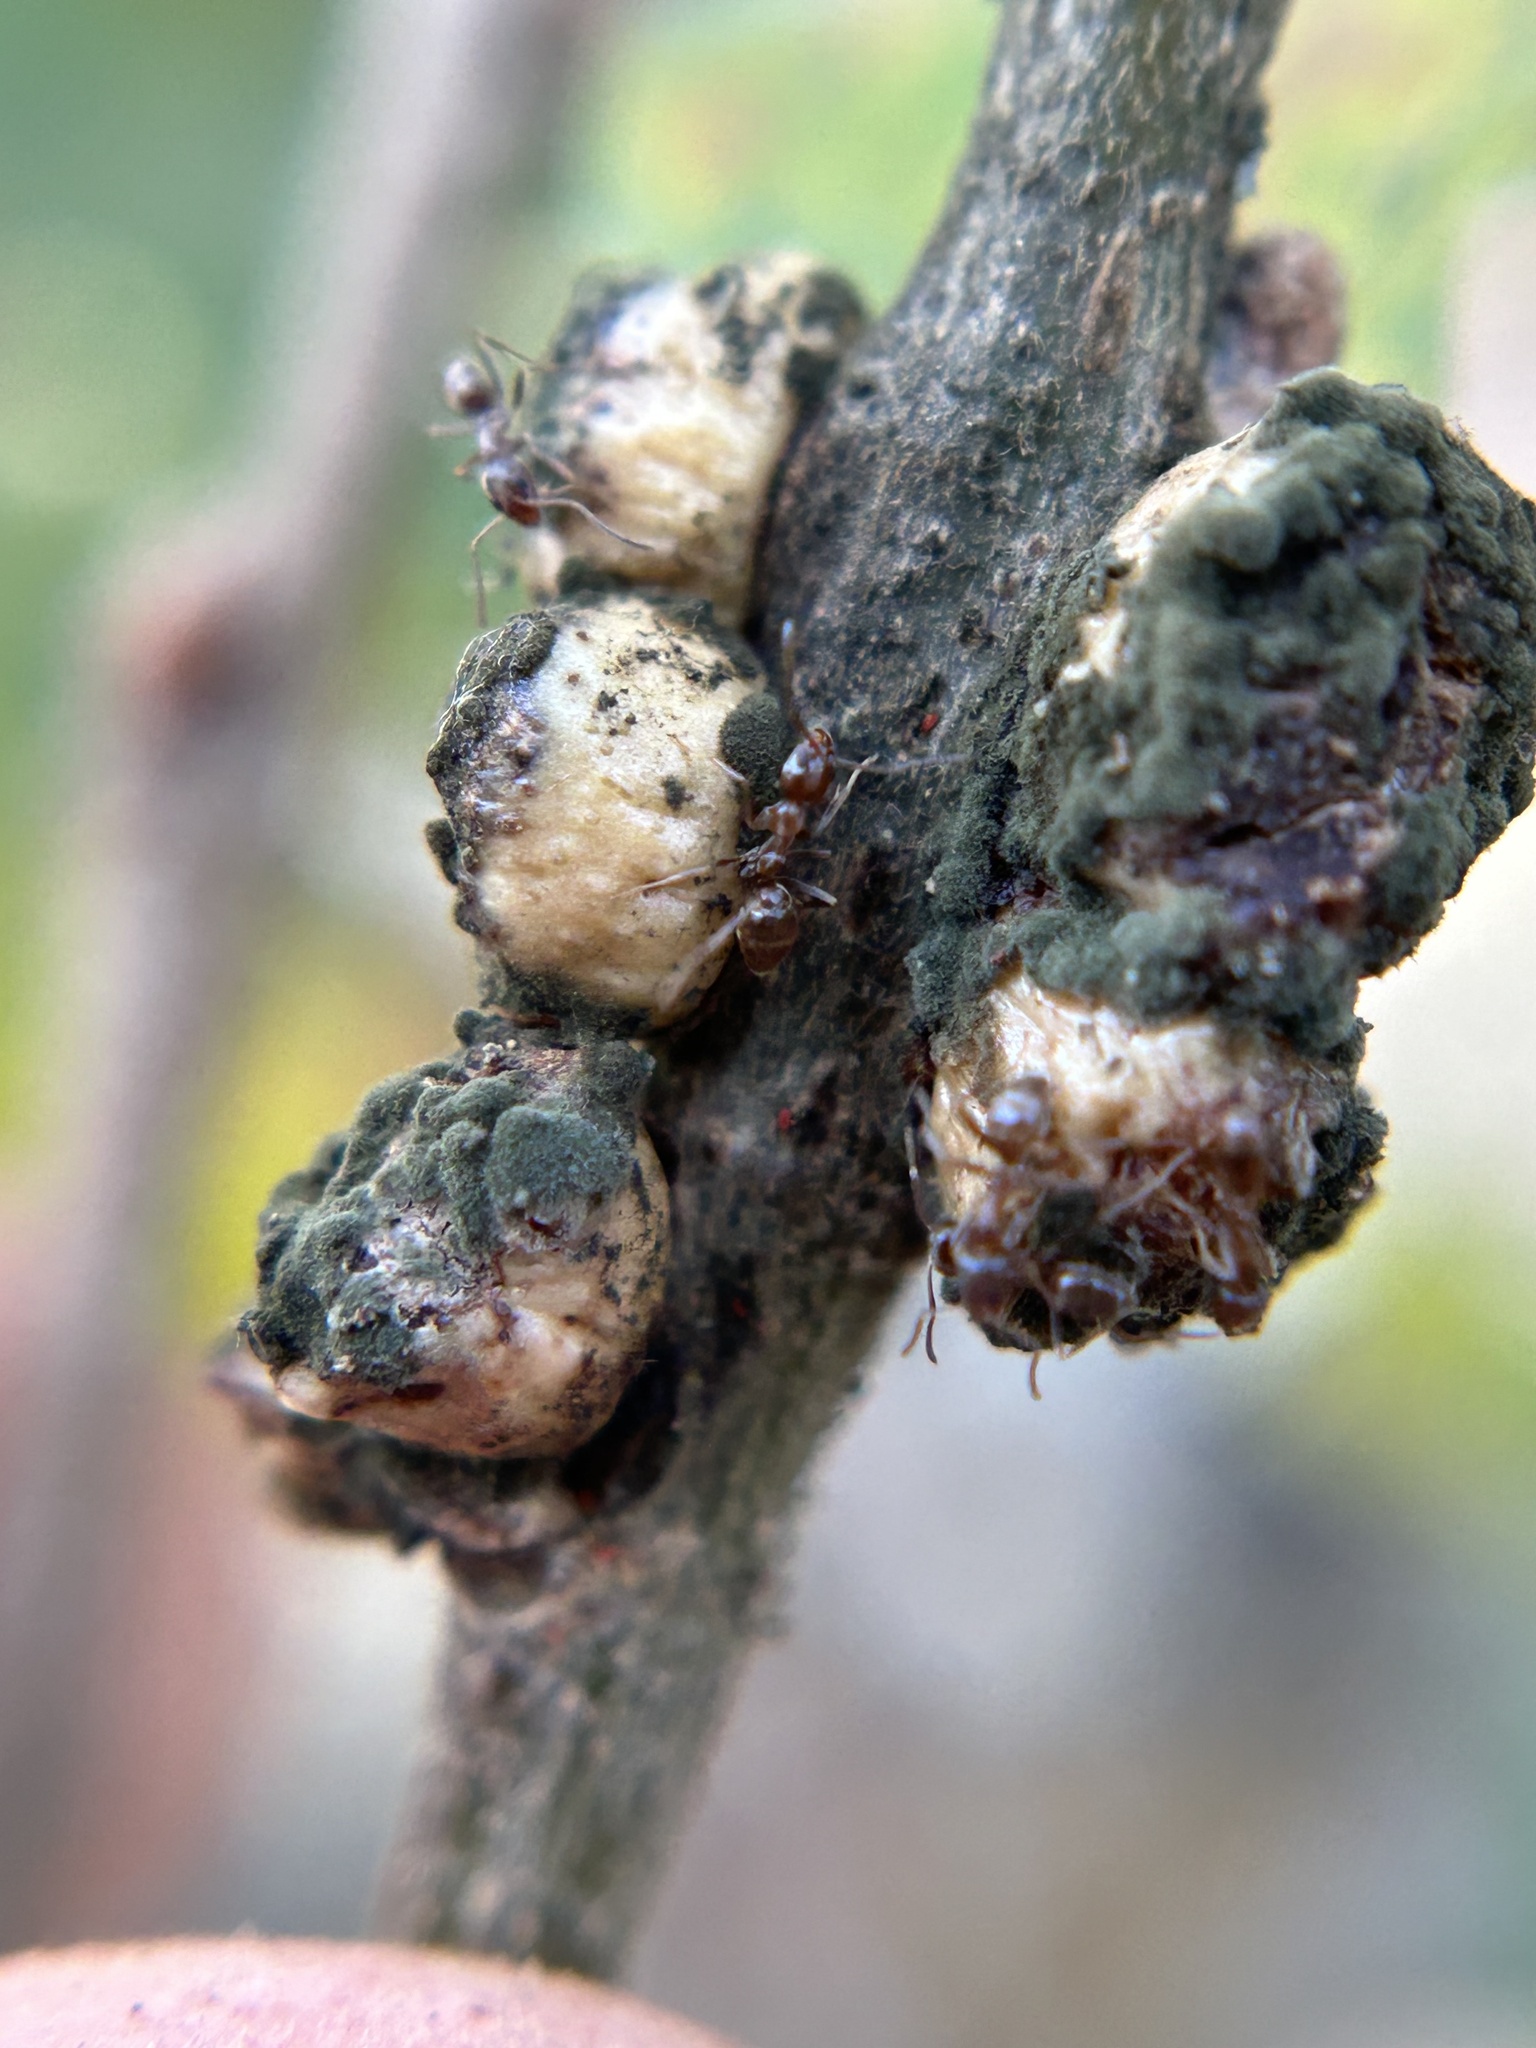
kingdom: Animalia
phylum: Arthropoda
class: Insecta
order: Hymenoptera
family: Cynipidae
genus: Disholcaspis
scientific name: Disholcaspis
